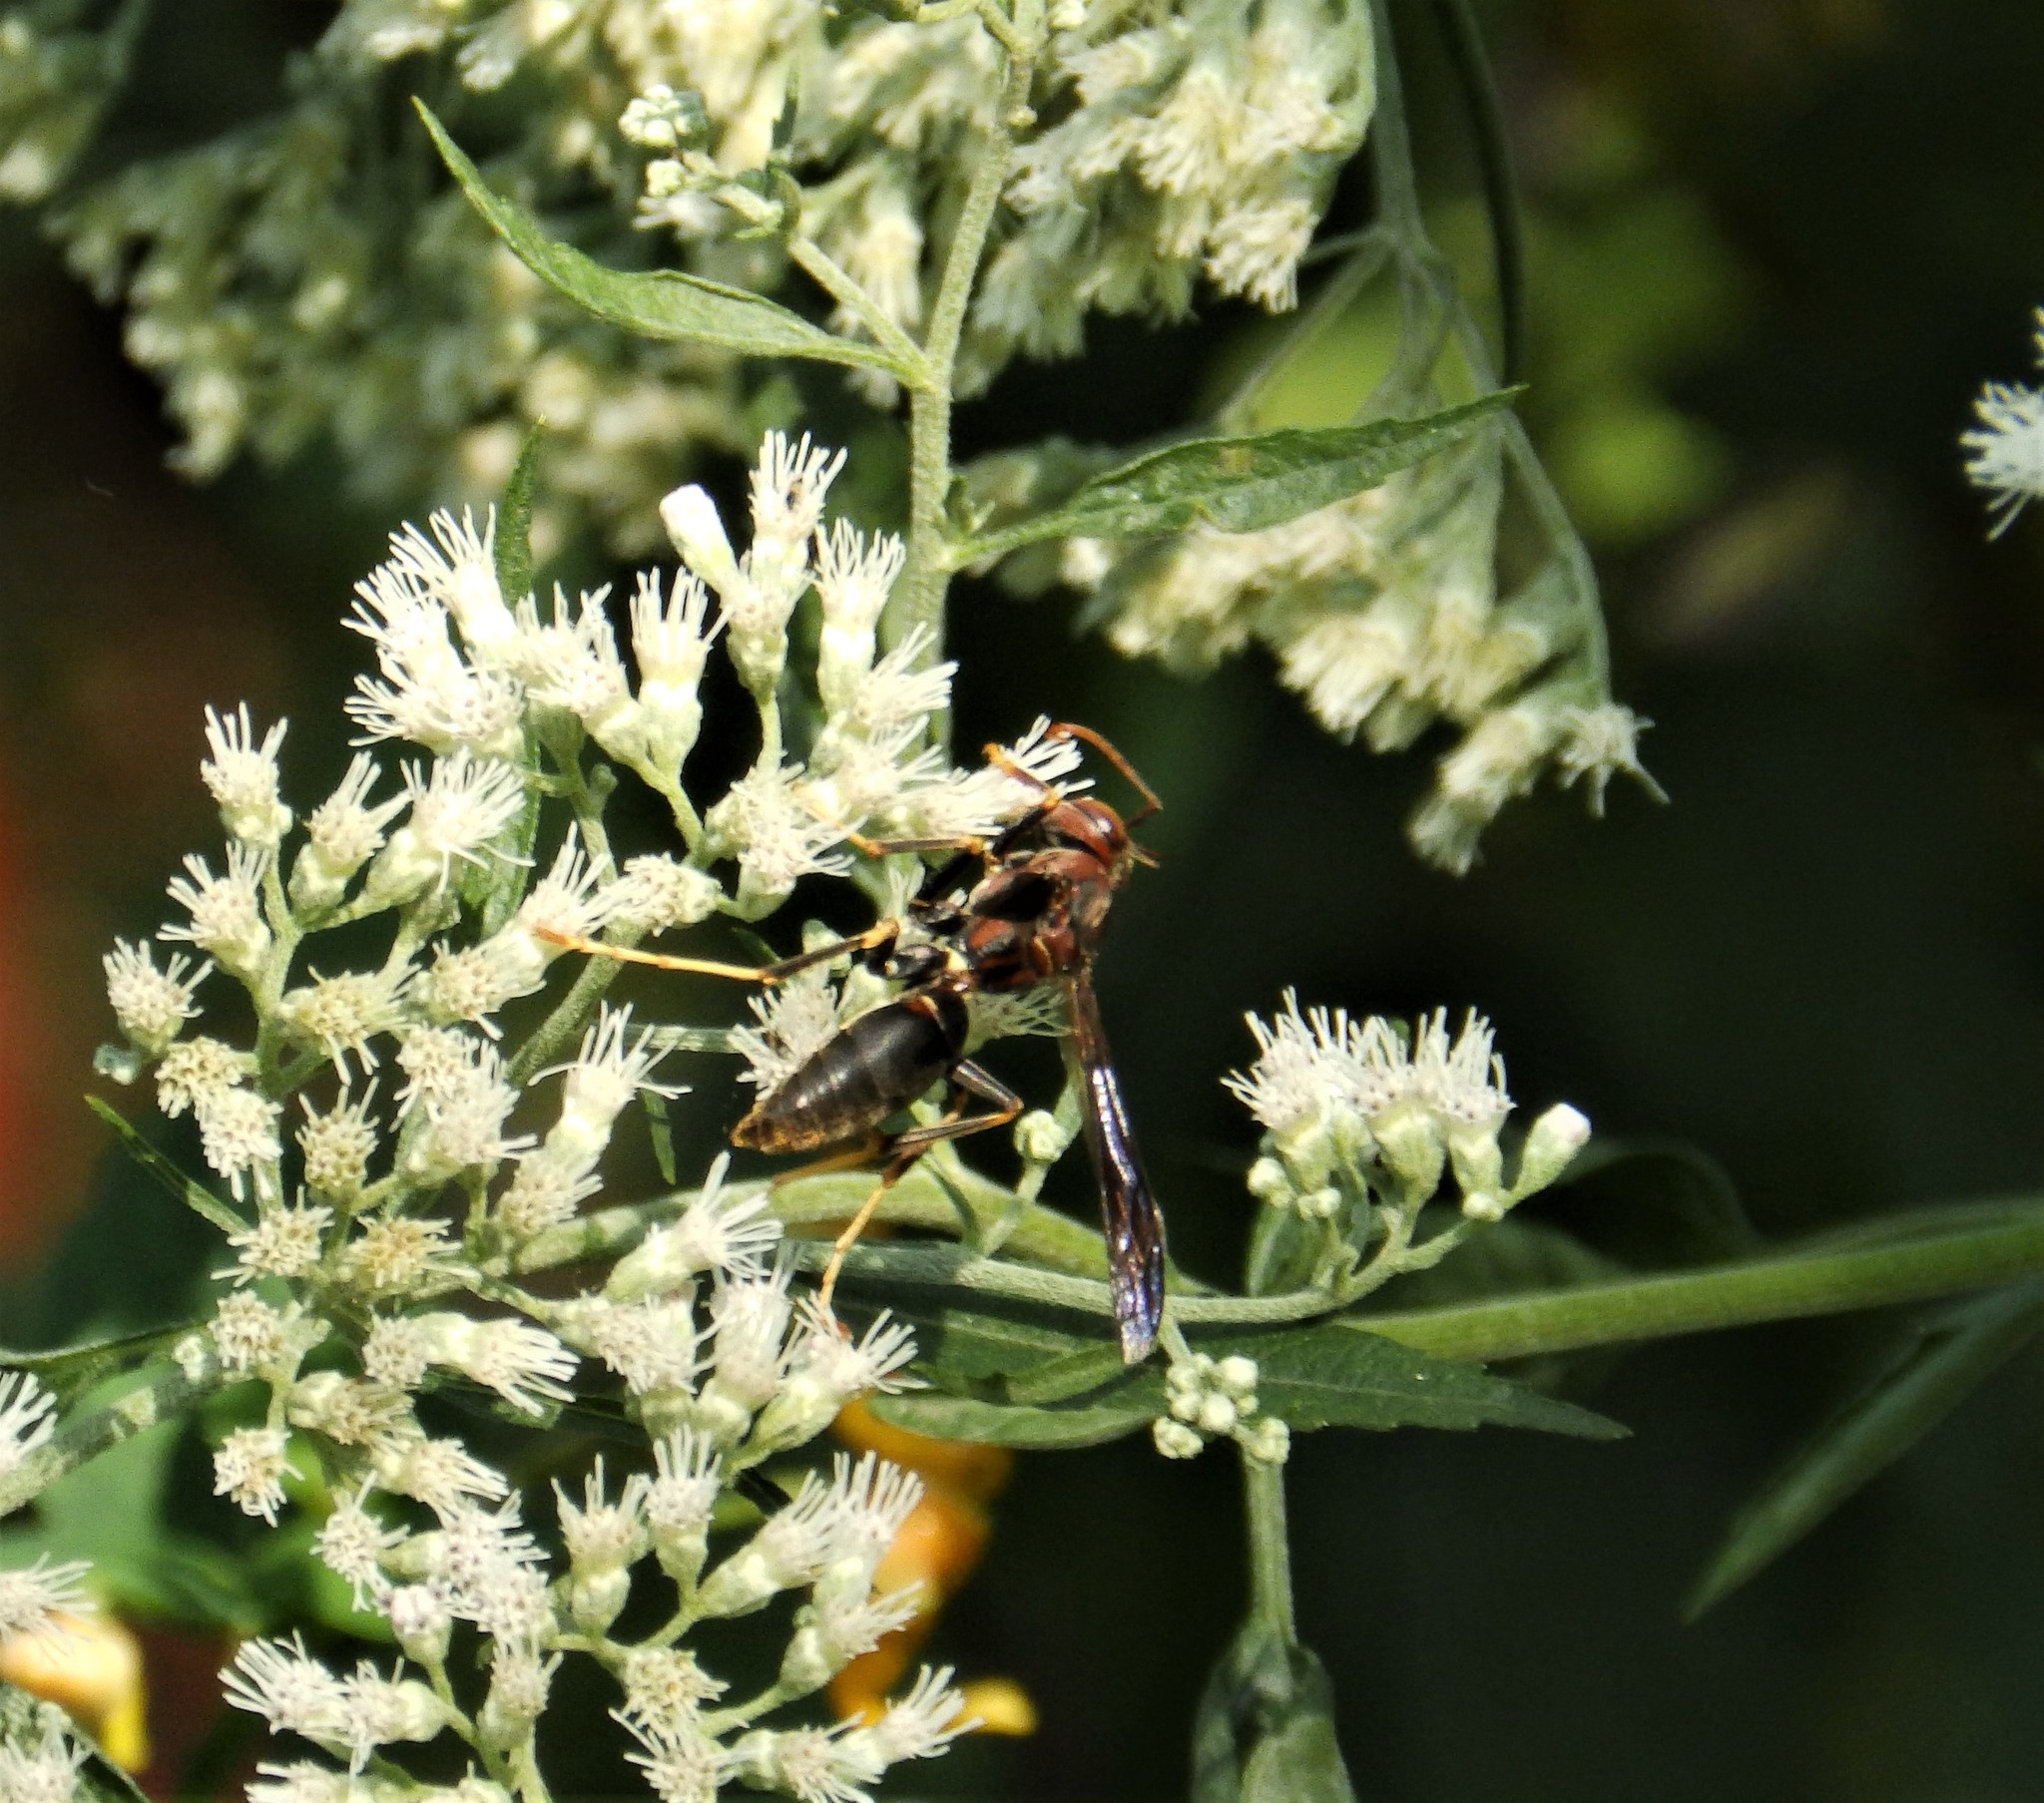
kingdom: Animalia
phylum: Arthropoda
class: Insecta
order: Hymenoptera
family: Eumenidae
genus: Polistes
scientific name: Polistes metricus
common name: Metric paper wasp
